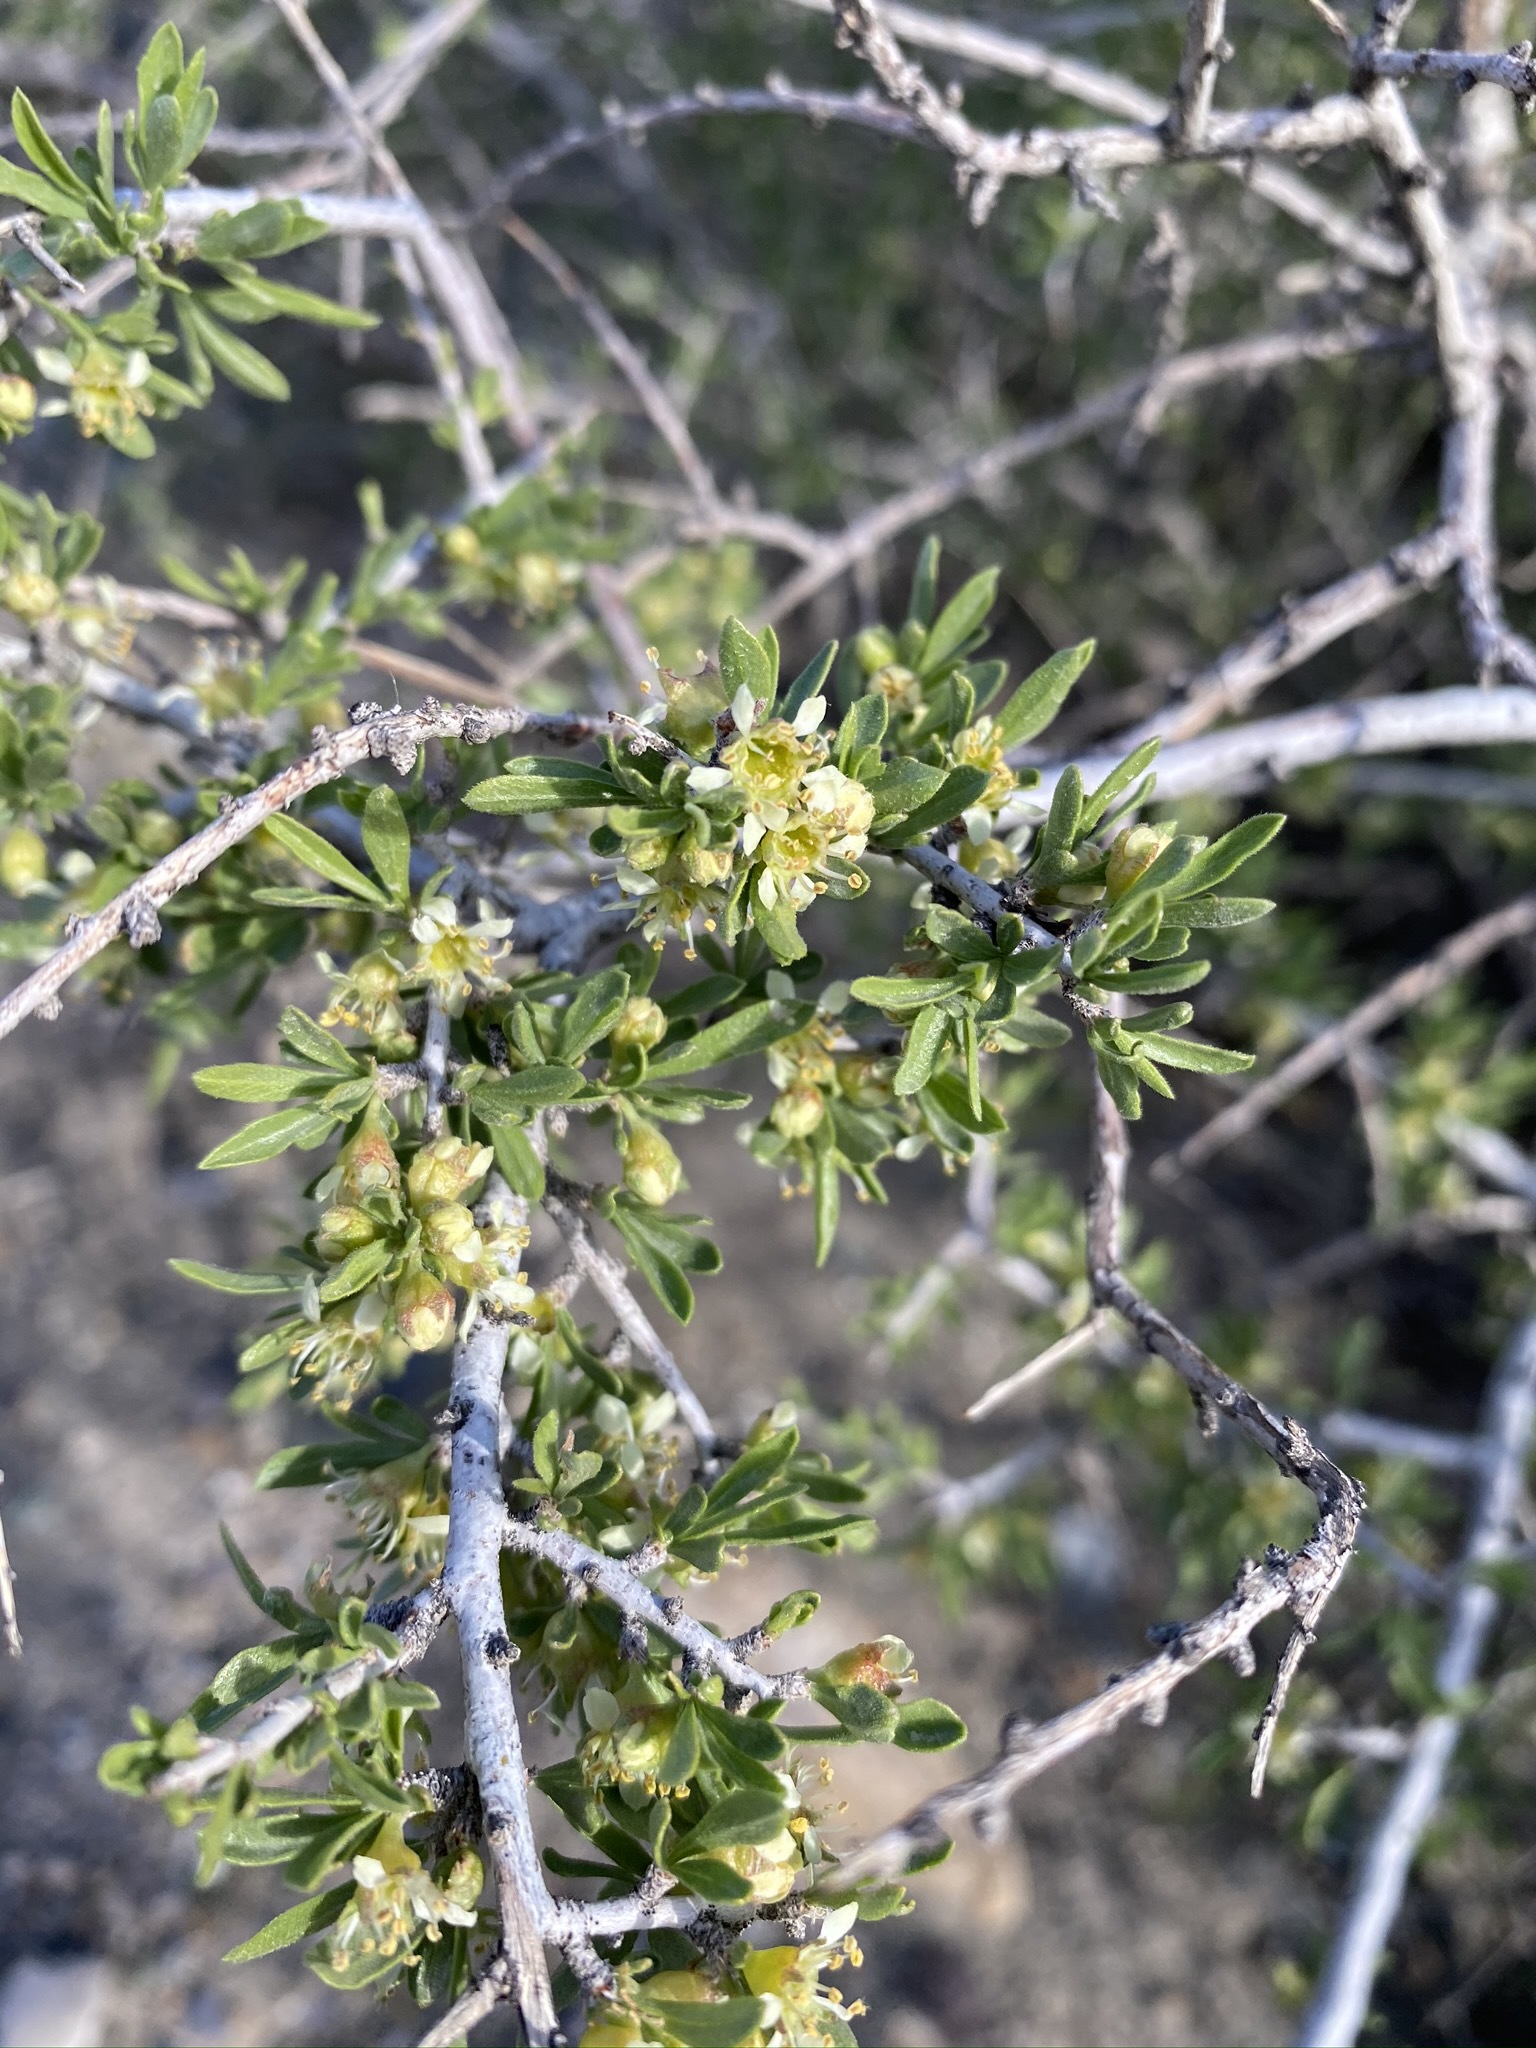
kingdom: Plantae
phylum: Tracheophyta
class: Magnoliopsida
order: Rosales
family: Rosaceae
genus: Prunus
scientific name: Prunus fasciculata
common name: Desert almond
